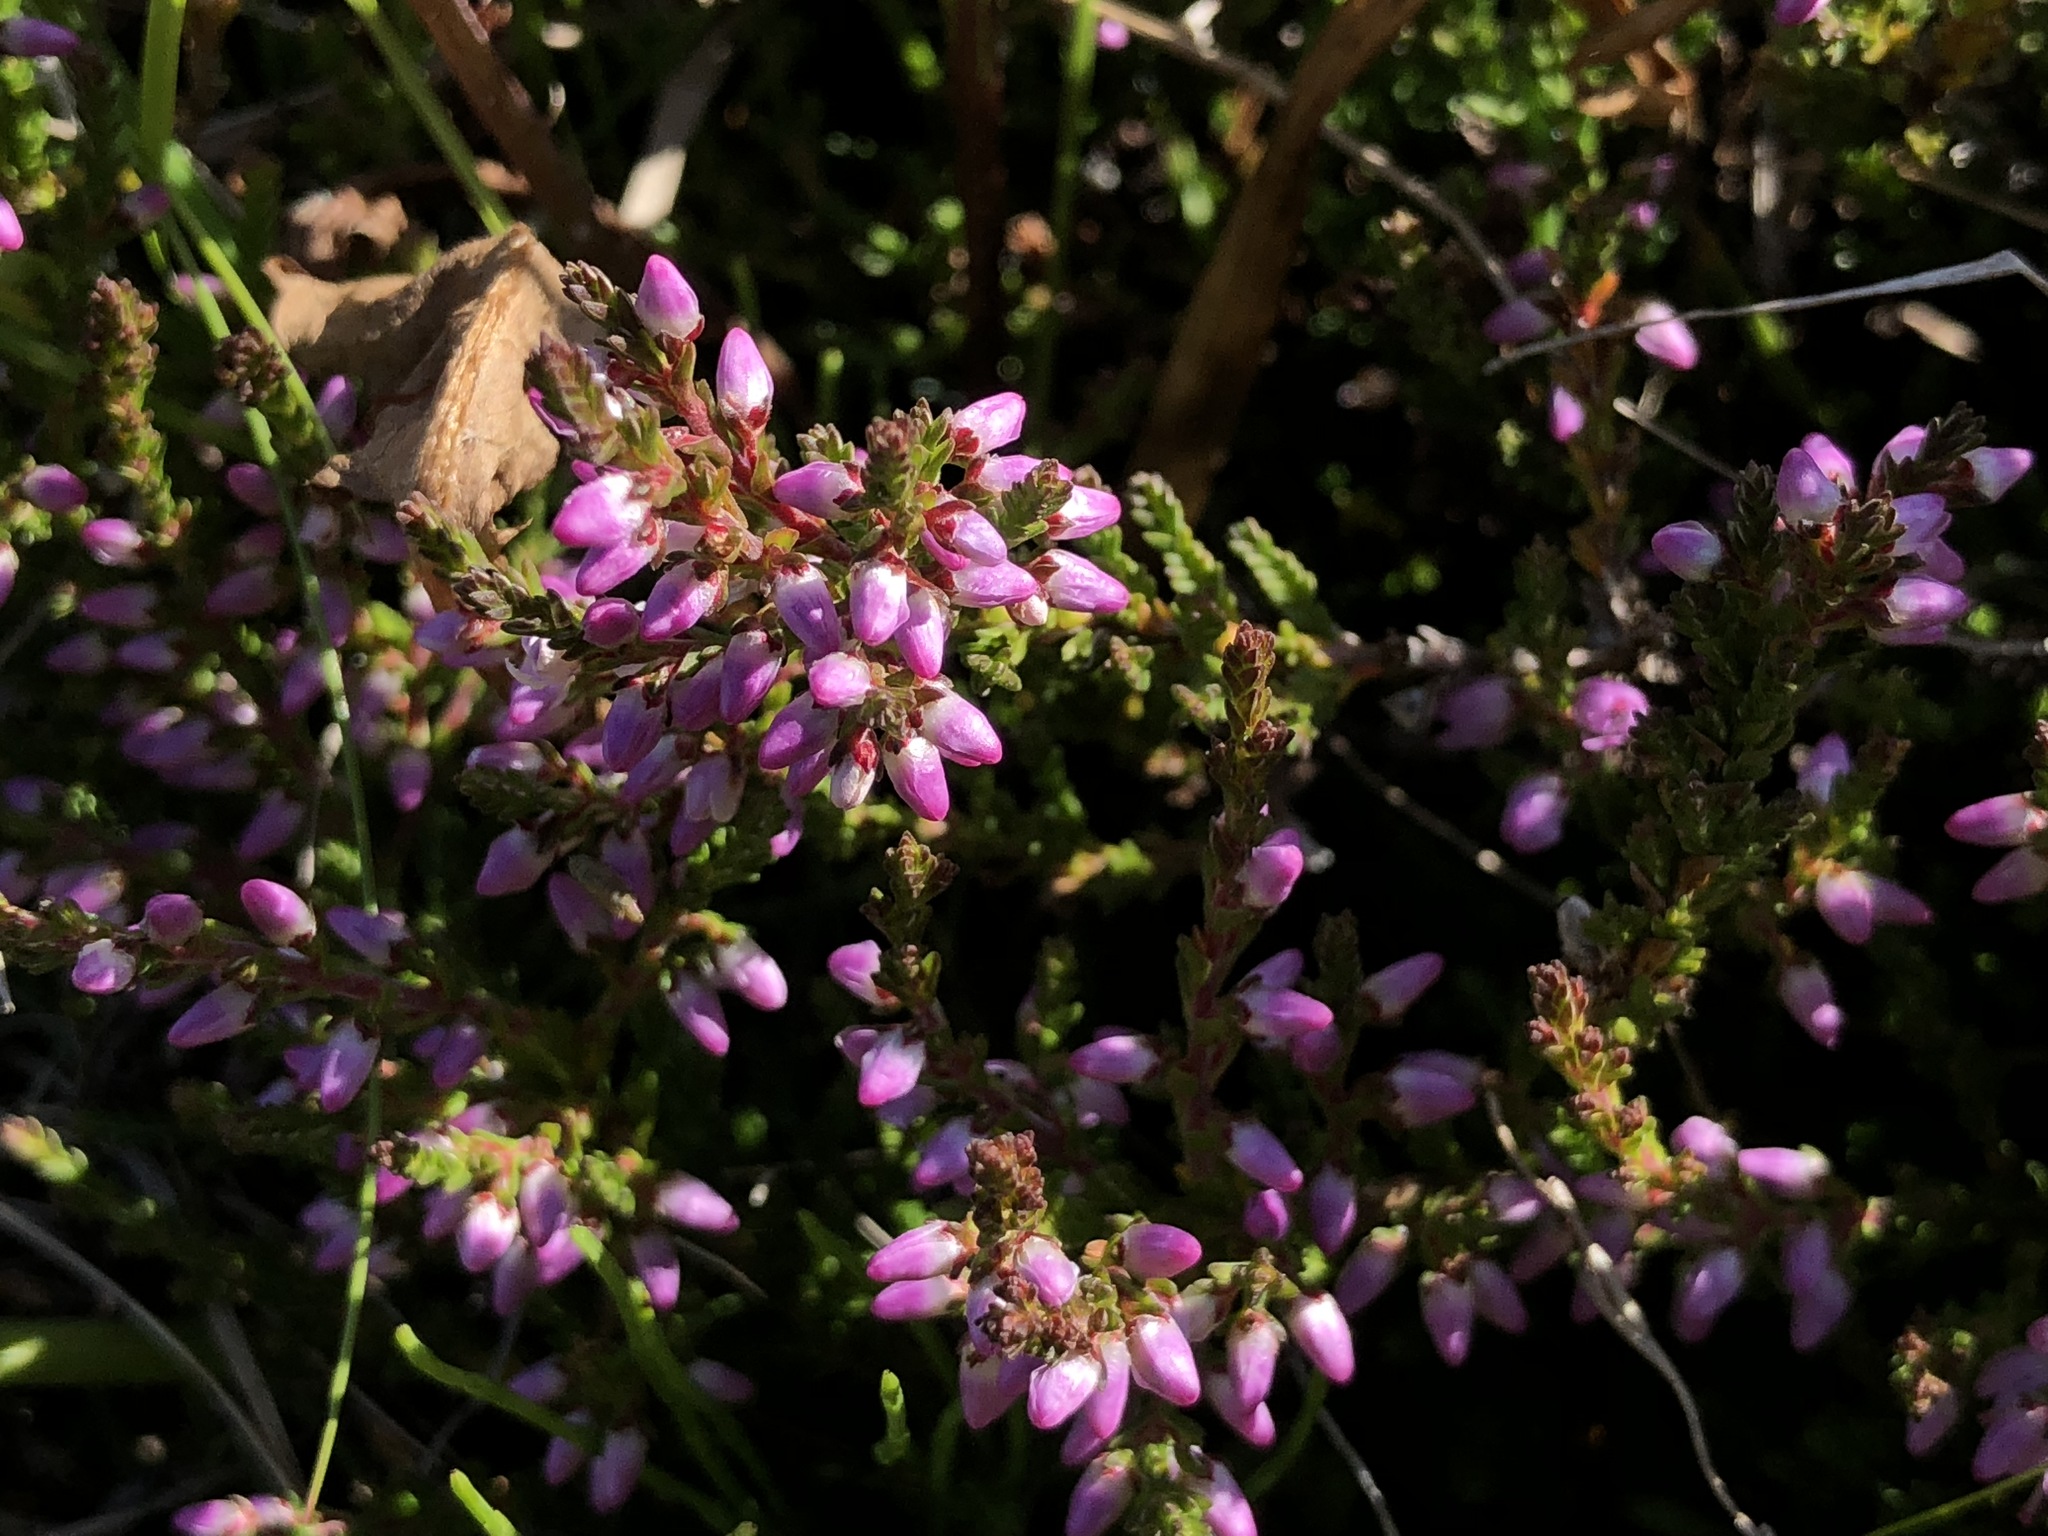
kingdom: Plantae
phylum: Tracheophyta
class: Magnoliopsida
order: Ericales
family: Ericaceae
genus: Calluna
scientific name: Calluna vulgaris
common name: Heather
